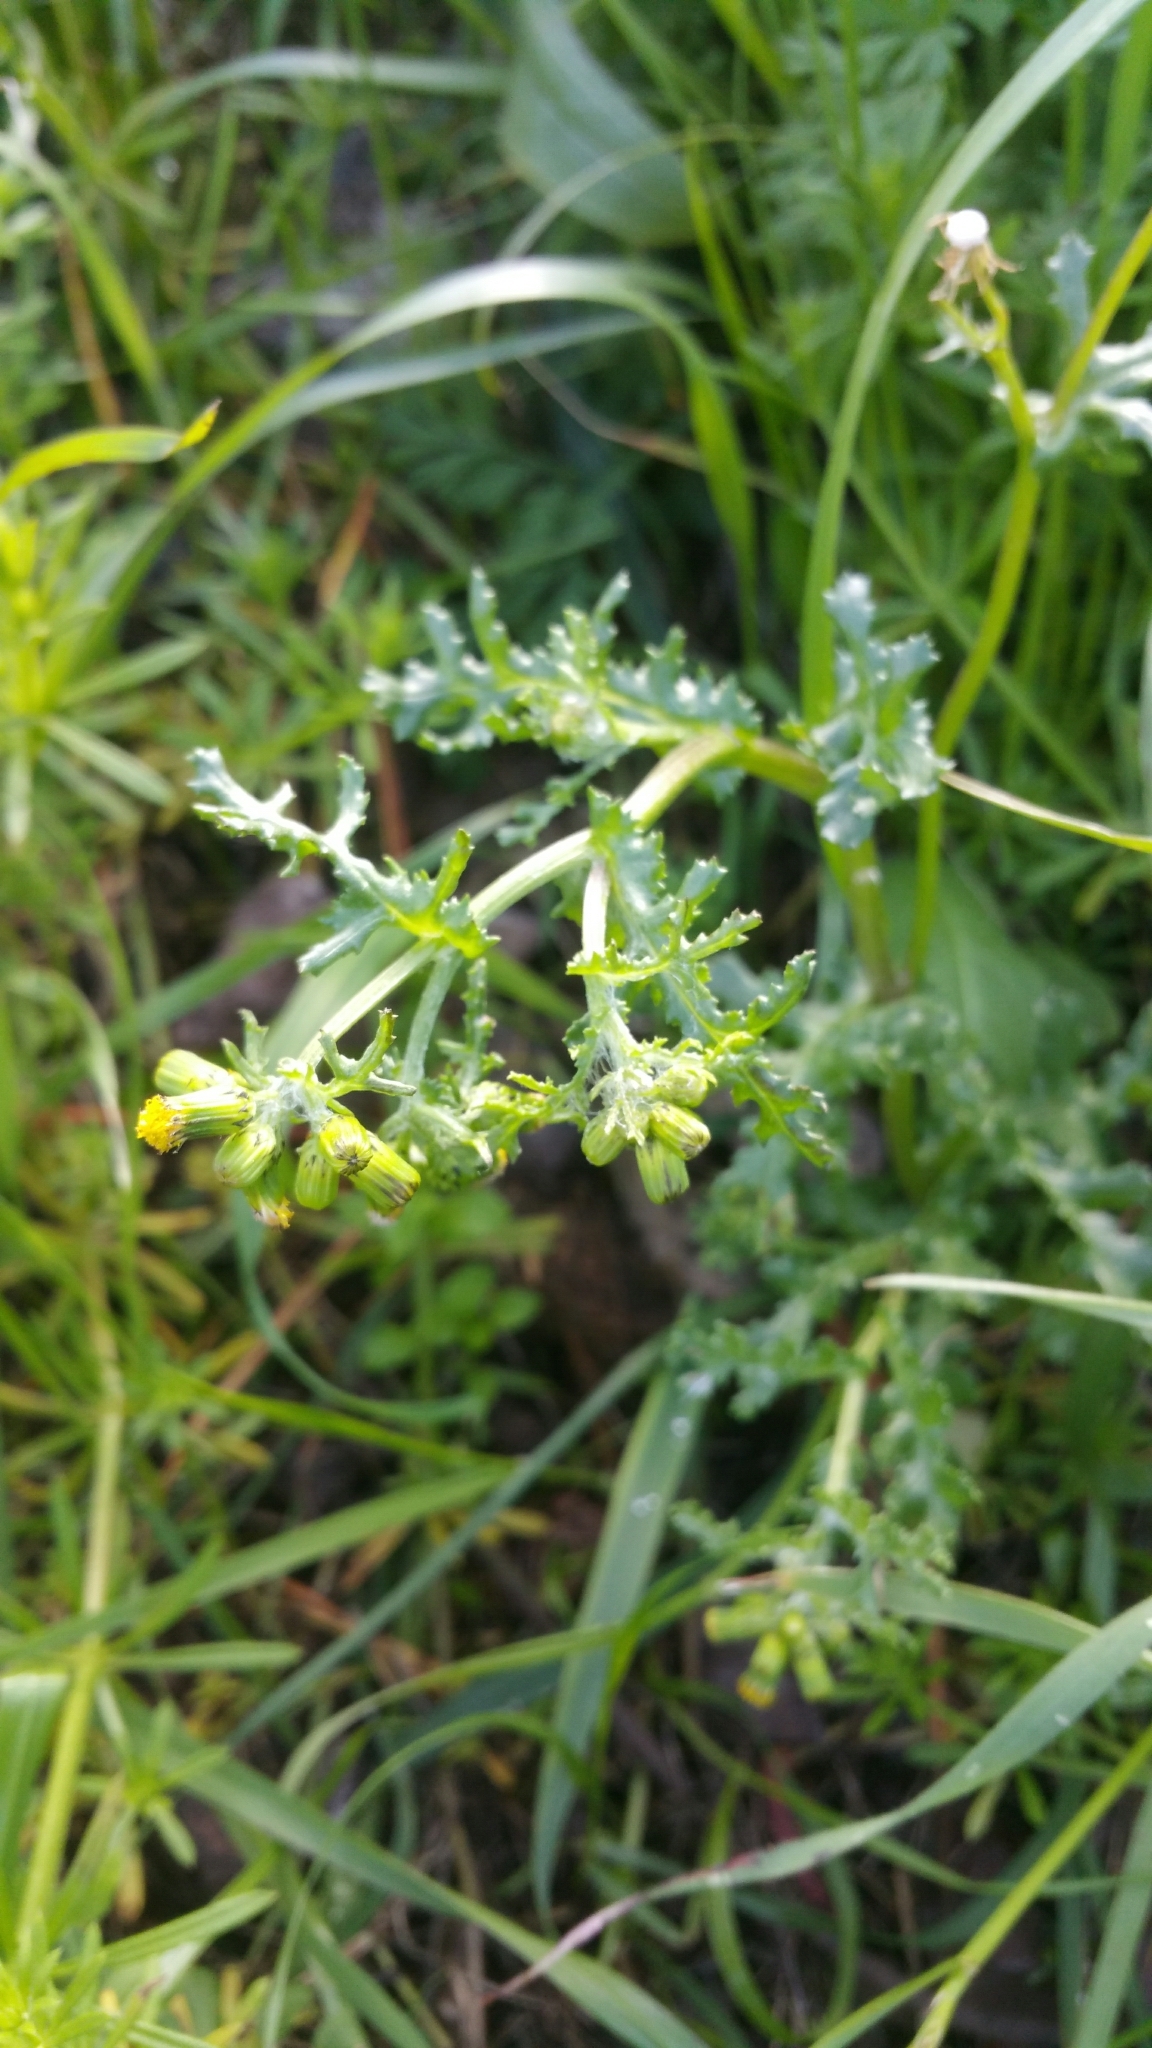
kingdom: Plantae
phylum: Tracheophyta
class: Magnoliopsida
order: Asterales
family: Asteraceae
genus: Senecio
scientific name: Senecio vulgaris
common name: Old-man-in-the-spring
